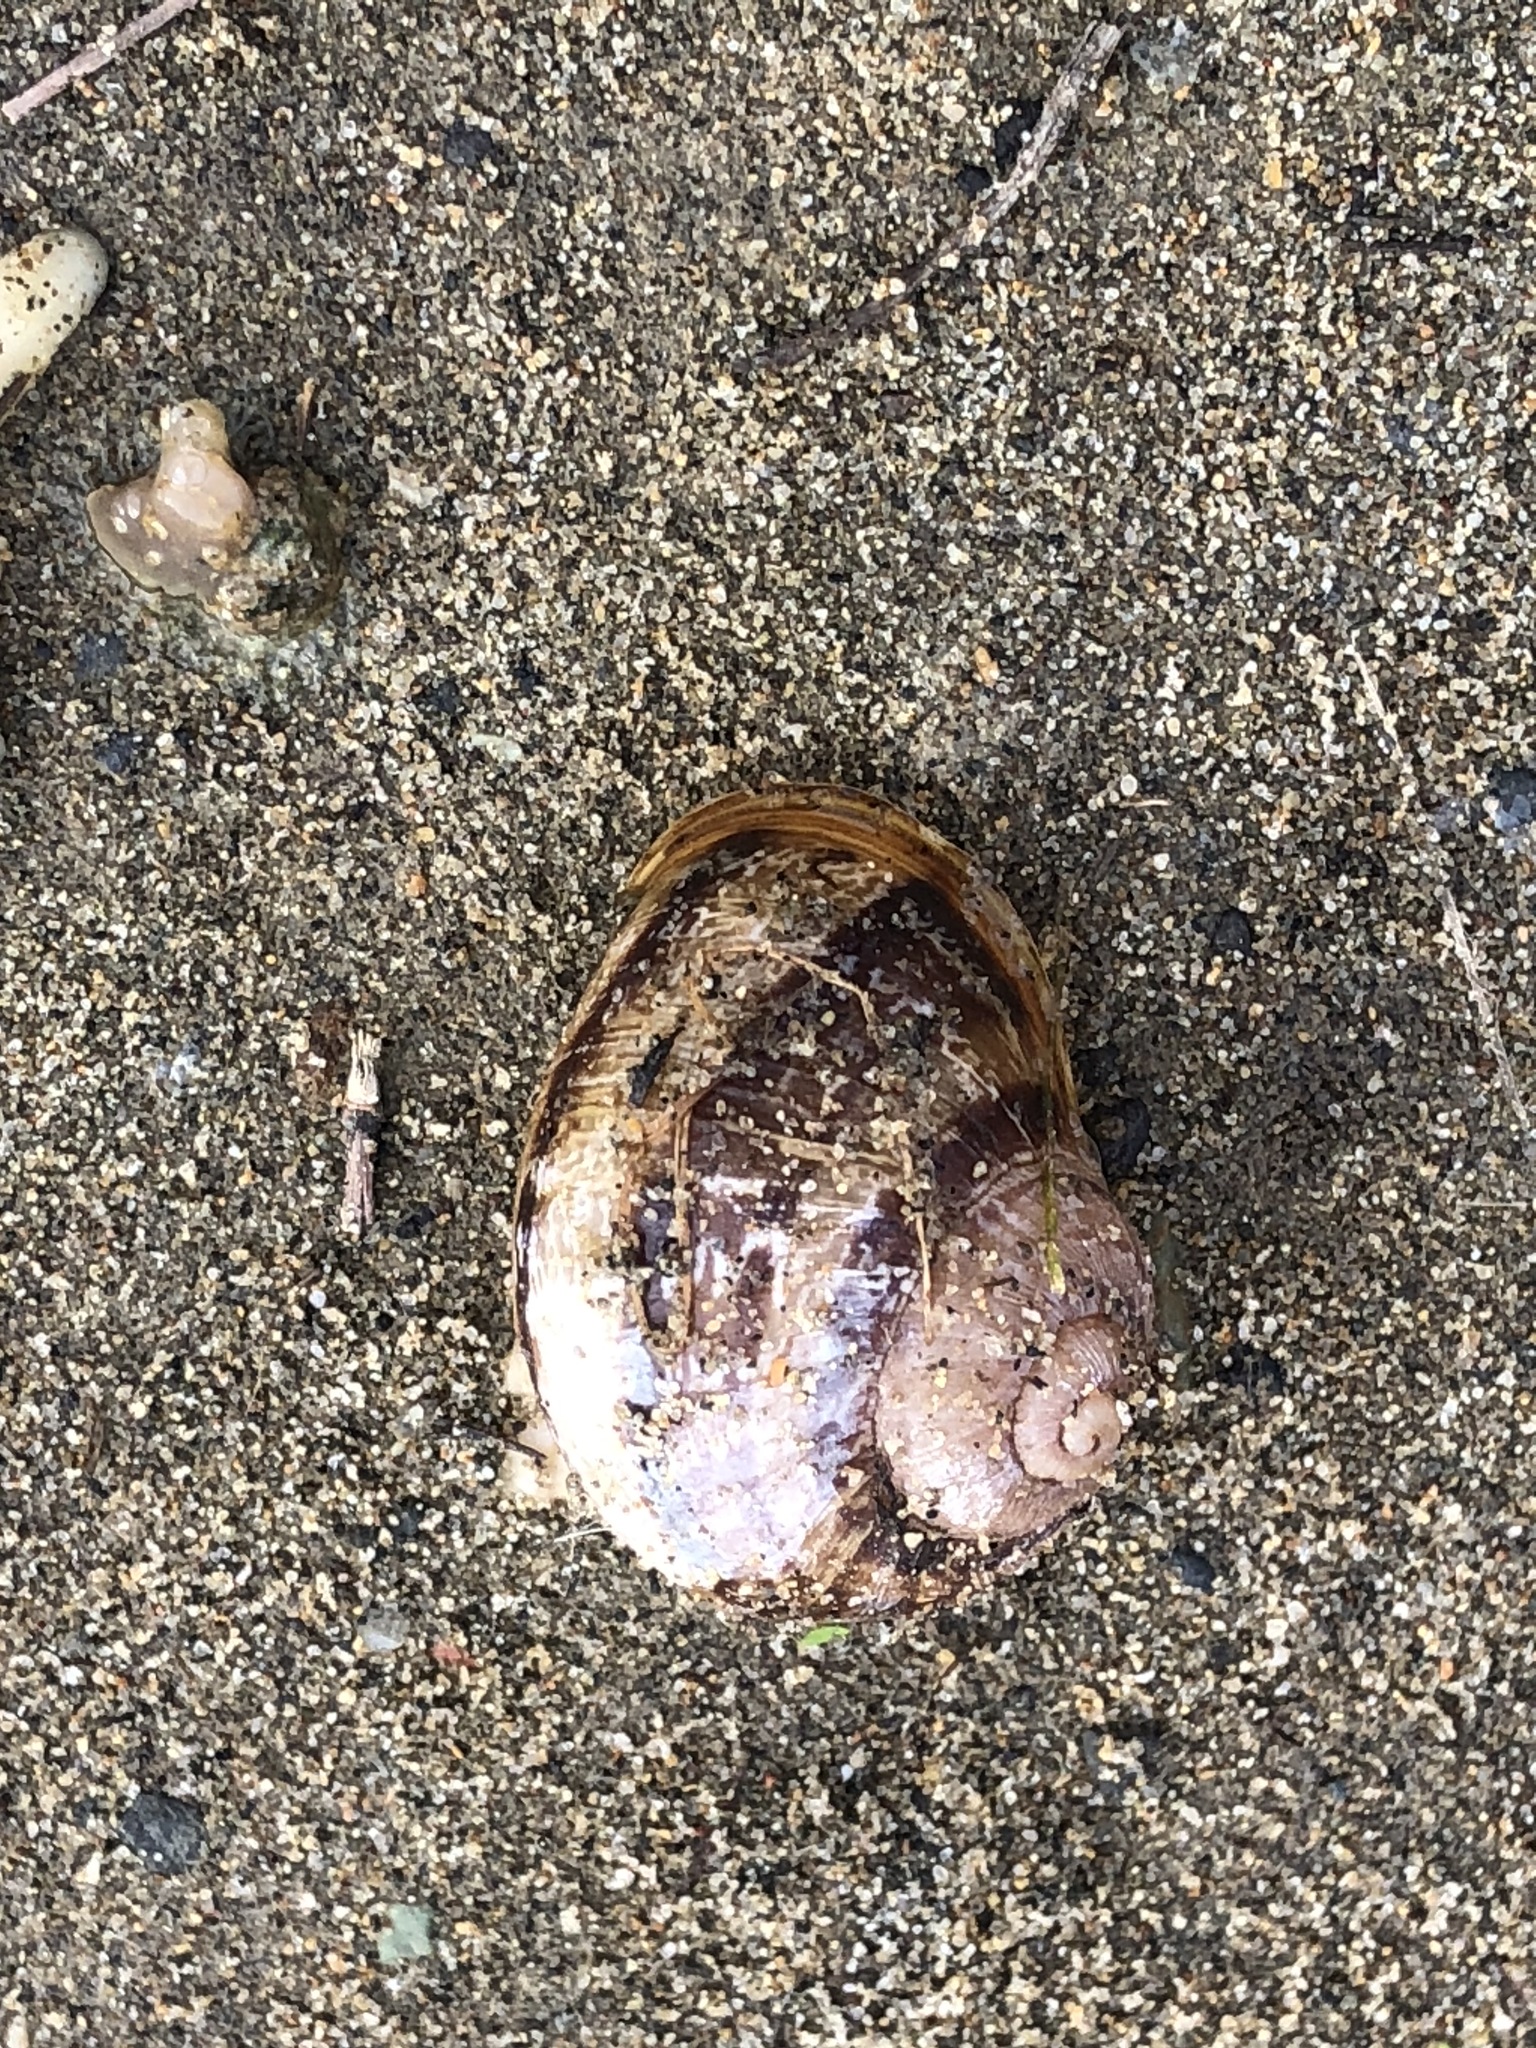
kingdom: Animalia
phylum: Mollusca
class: Gastropoda
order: Stylommatophora
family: Helicidae
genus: Cornu
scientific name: Cornu aspersum
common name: Brown garden snail
